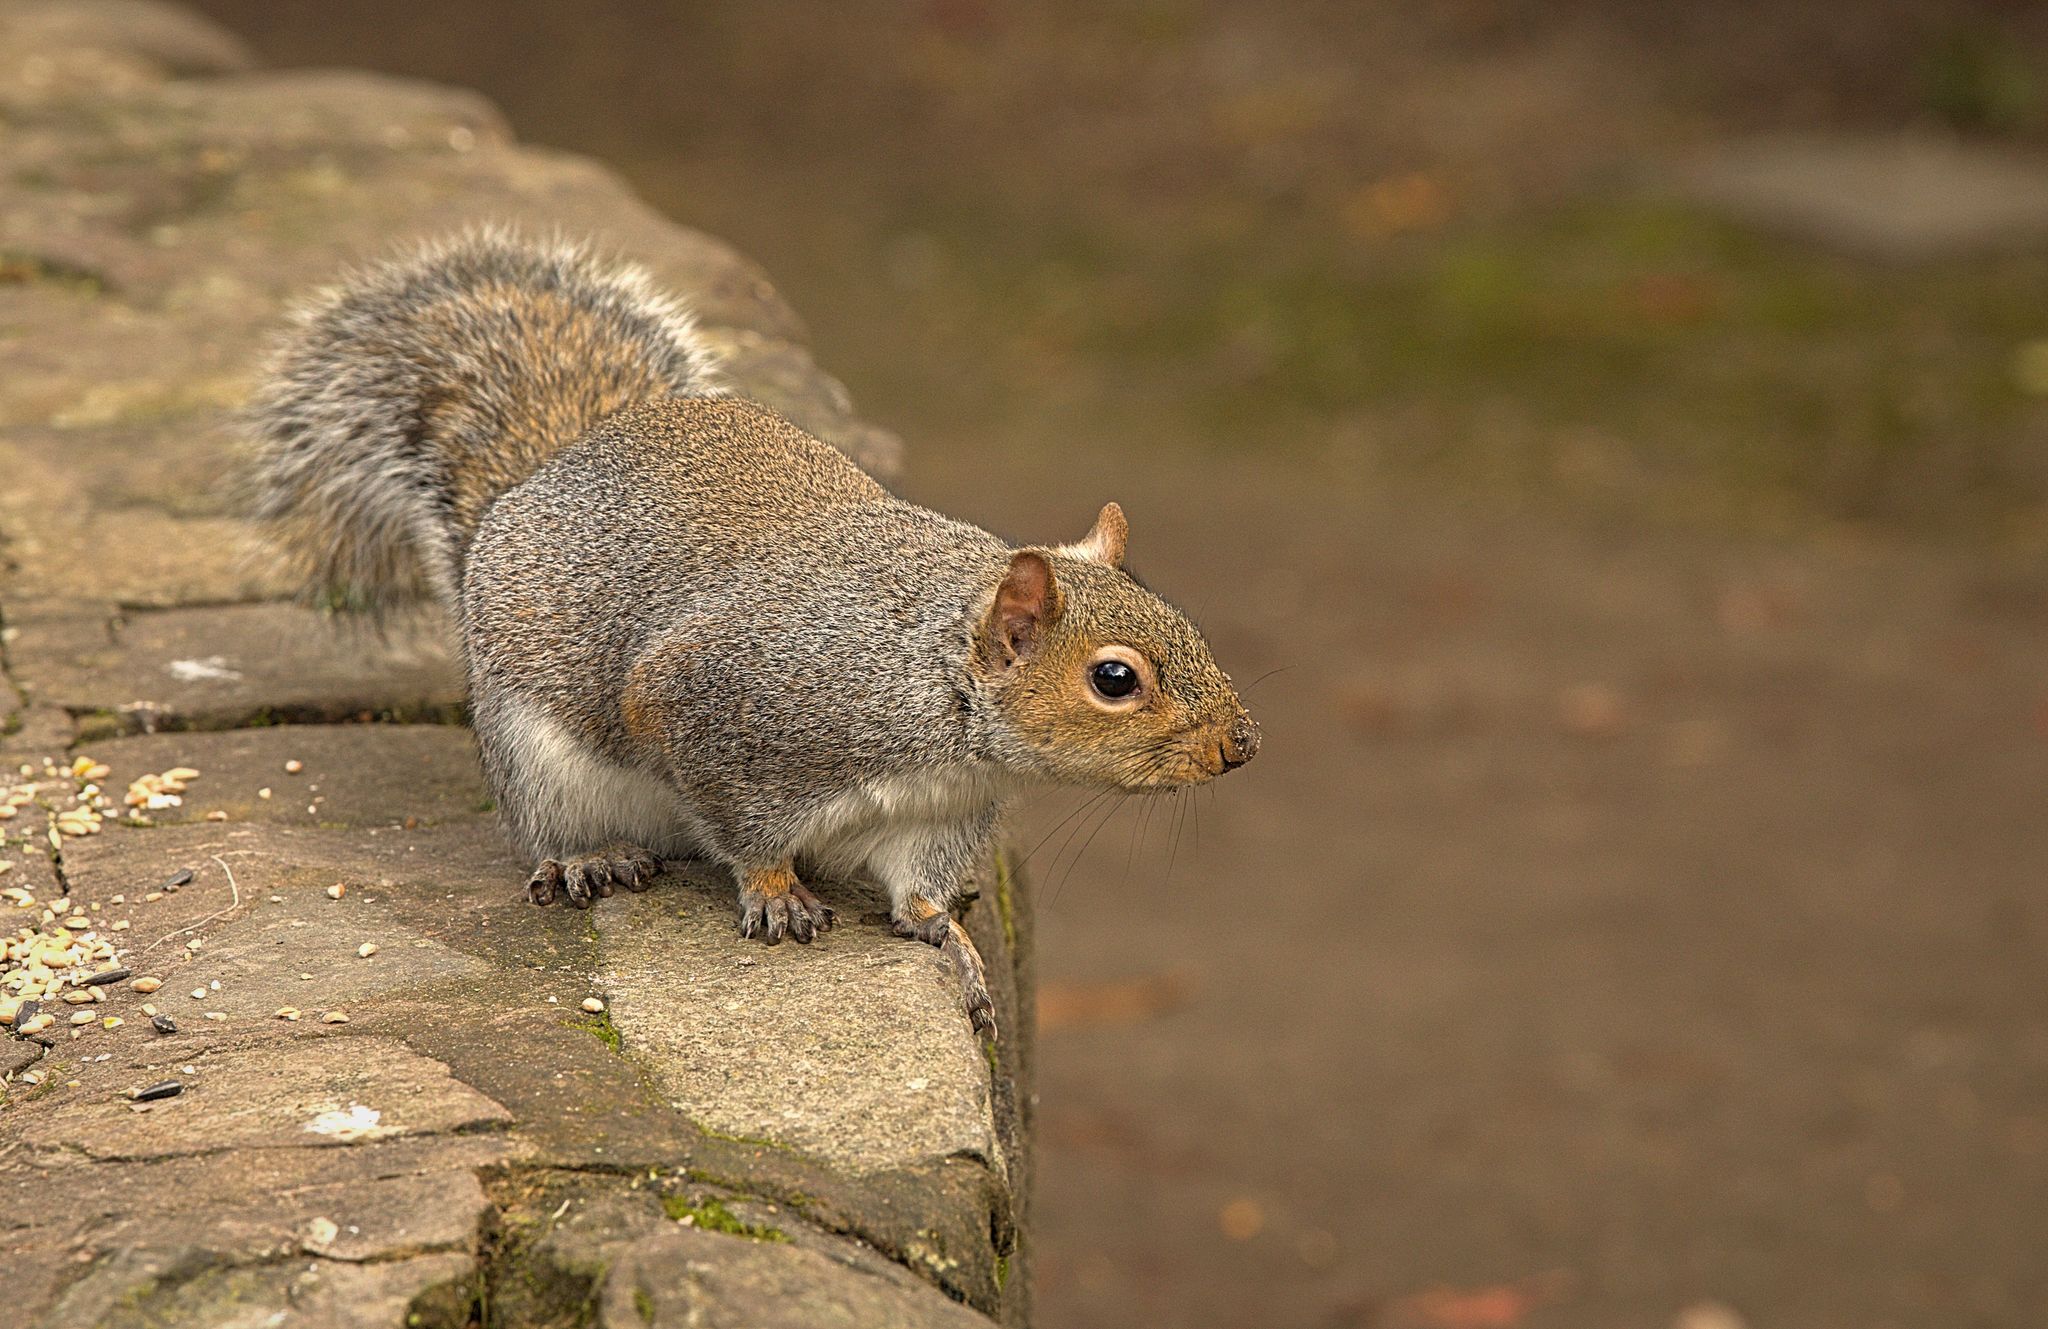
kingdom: Animalia
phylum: Chordata
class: Mammalia
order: Rodentia
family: Sciuridae
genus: Sciurus
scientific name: Sciurus carolinensis
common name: Eastern gray squirrel
